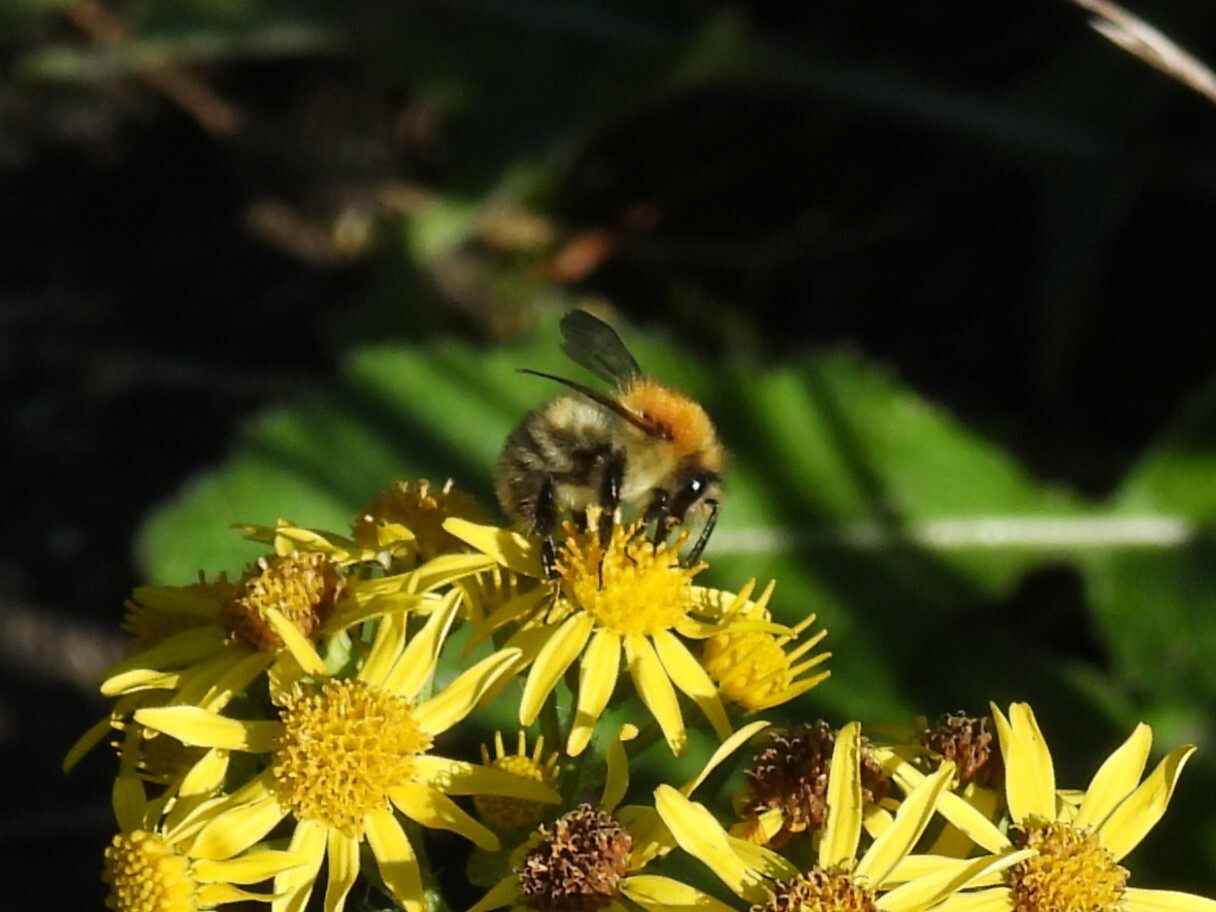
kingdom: Animalia
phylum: Arthropoda
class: Insecta
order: Hymenoptera
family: Apidae
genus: Bombus
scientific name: Bombus pascuorum
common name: Common carder bee
